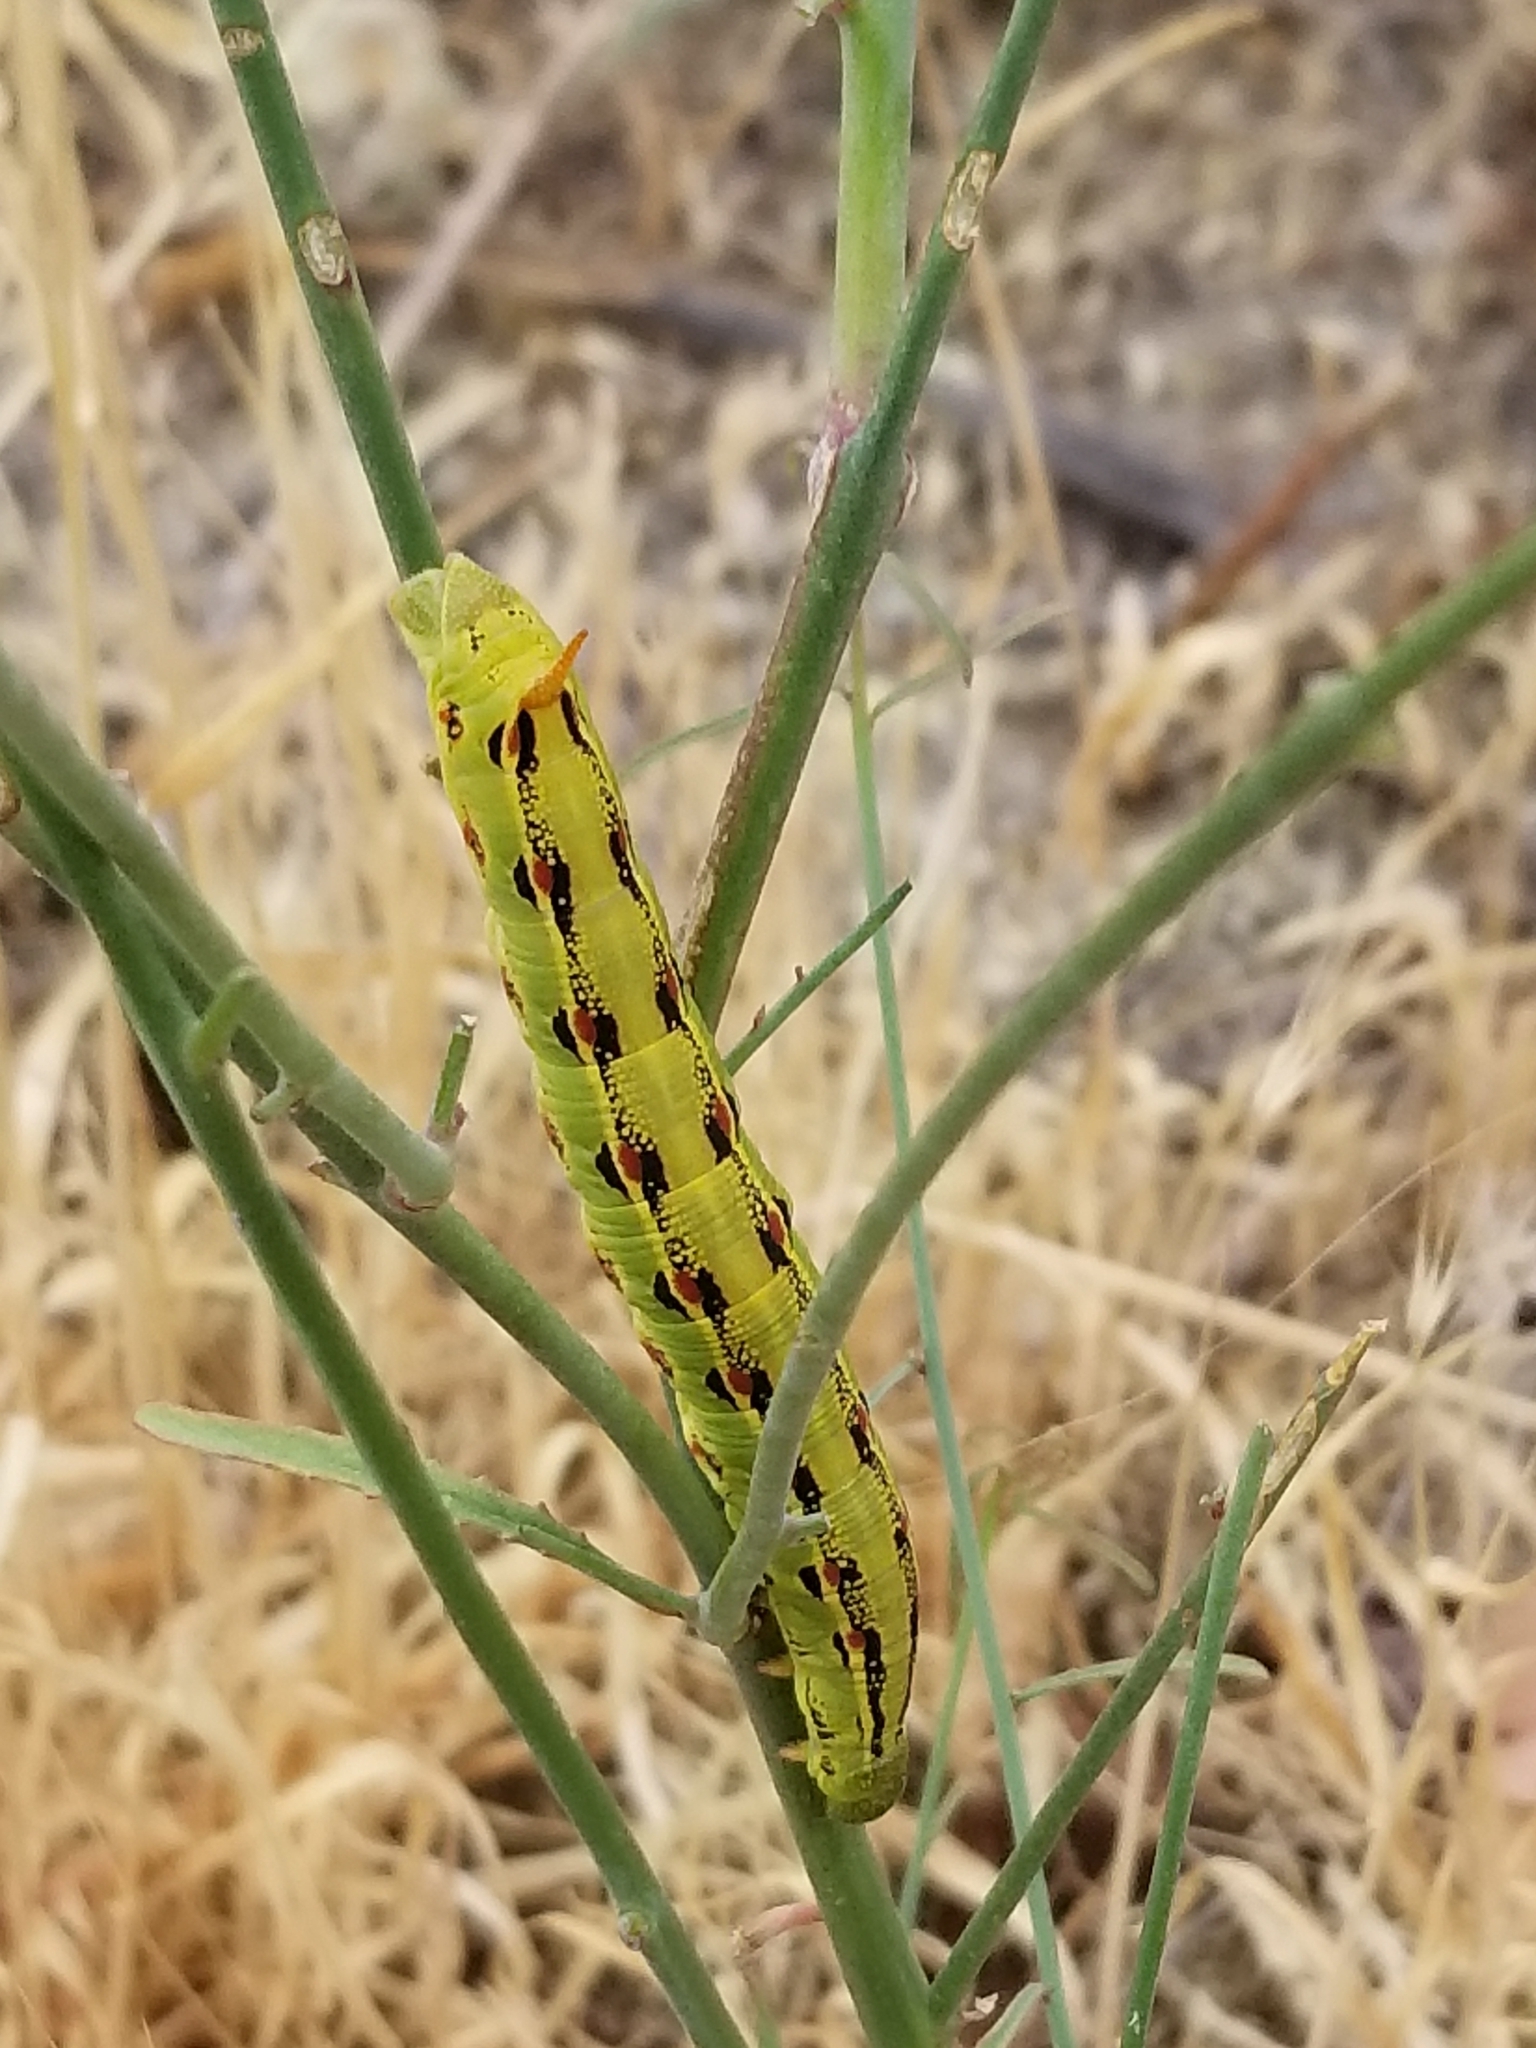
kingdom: Animalia
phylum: Arthropoda
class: Insecta
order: Lepidoptera
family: Sphingidae
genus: Hyles
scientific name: Hyles lineata
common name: White-lined sphinx
